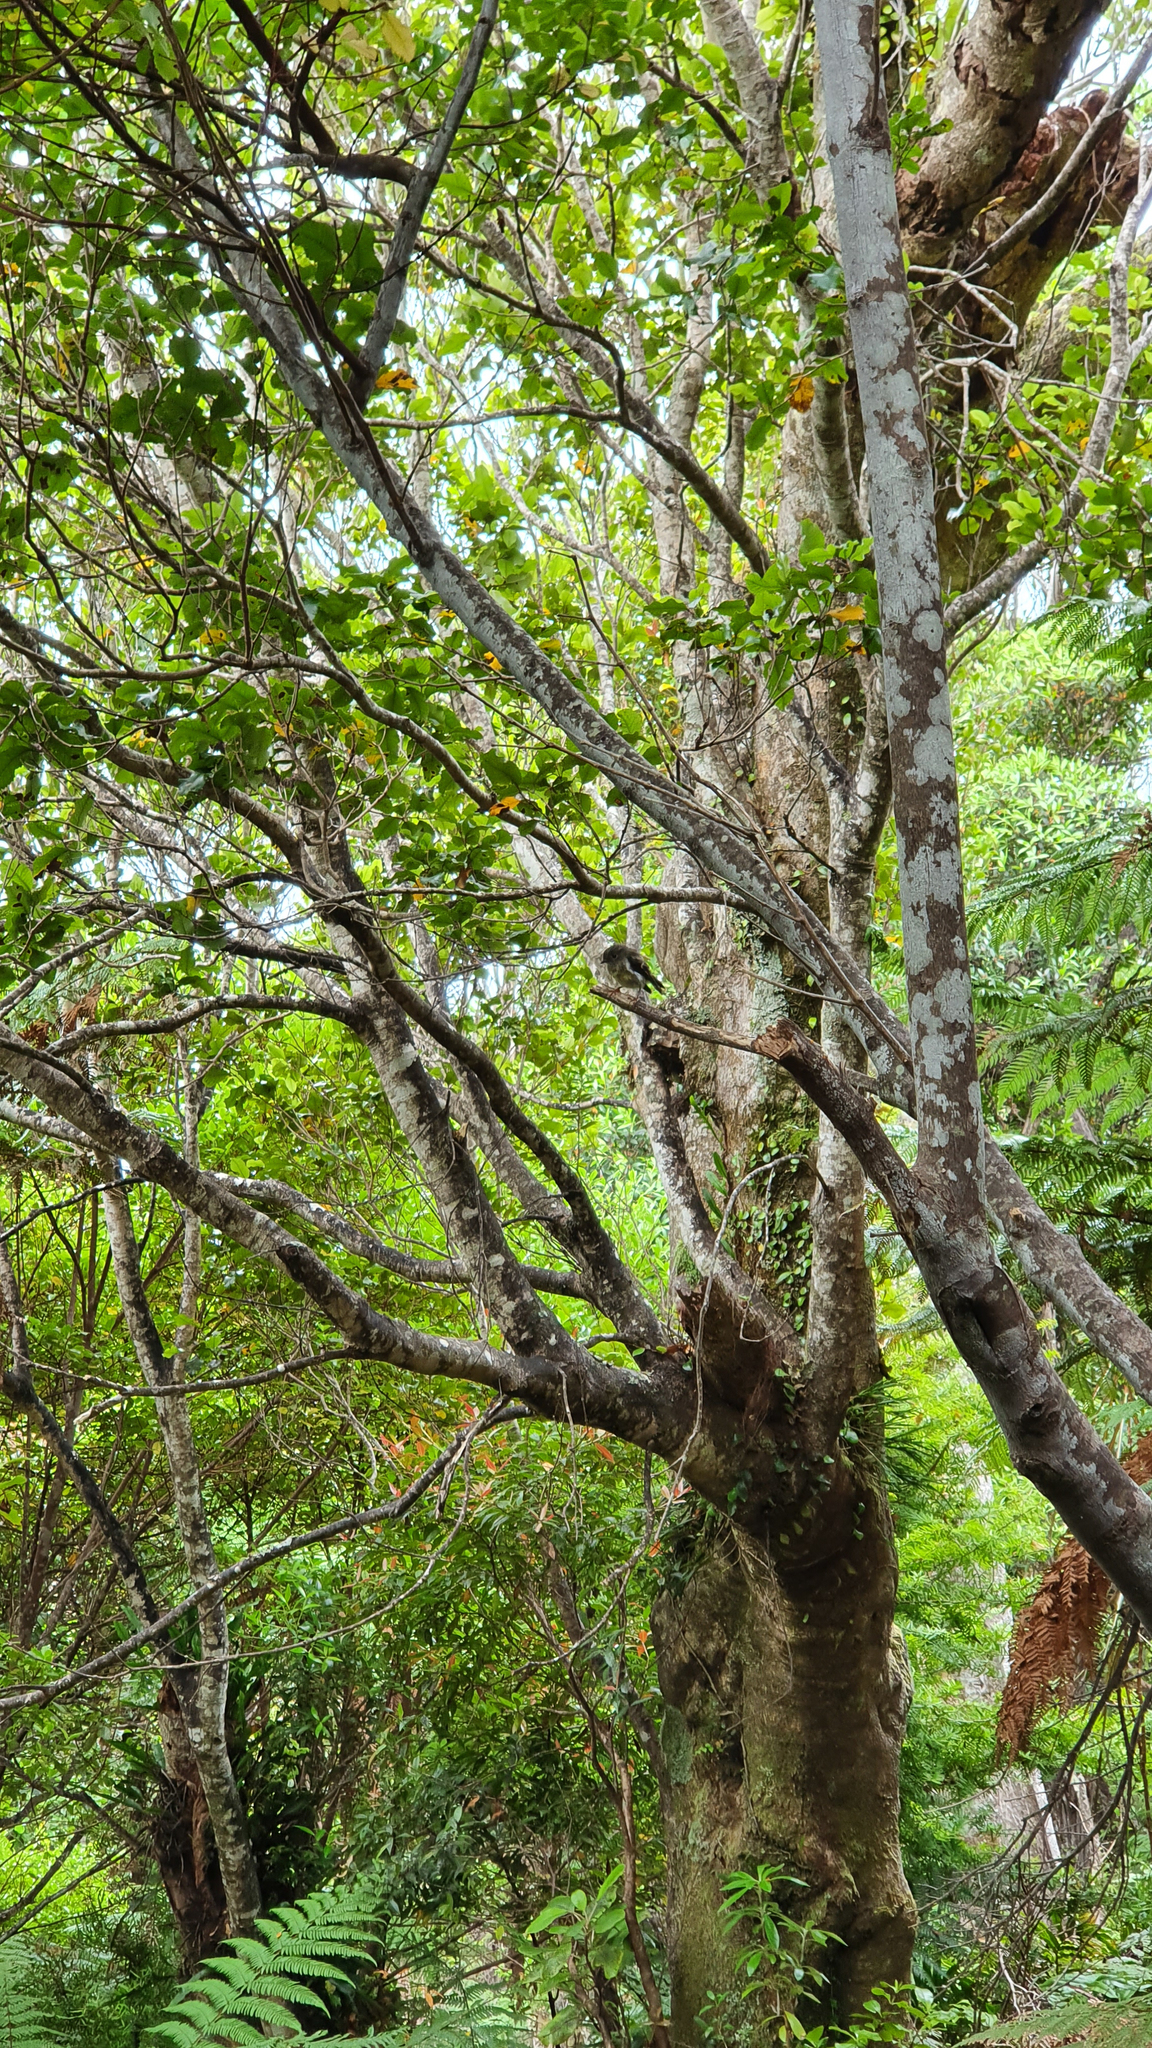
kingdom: Animalia
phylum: Chordata
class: Aves
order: Passeriformes
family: Petroicidae
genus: Petroica
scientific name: Petroica australis
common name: New zealand robin
